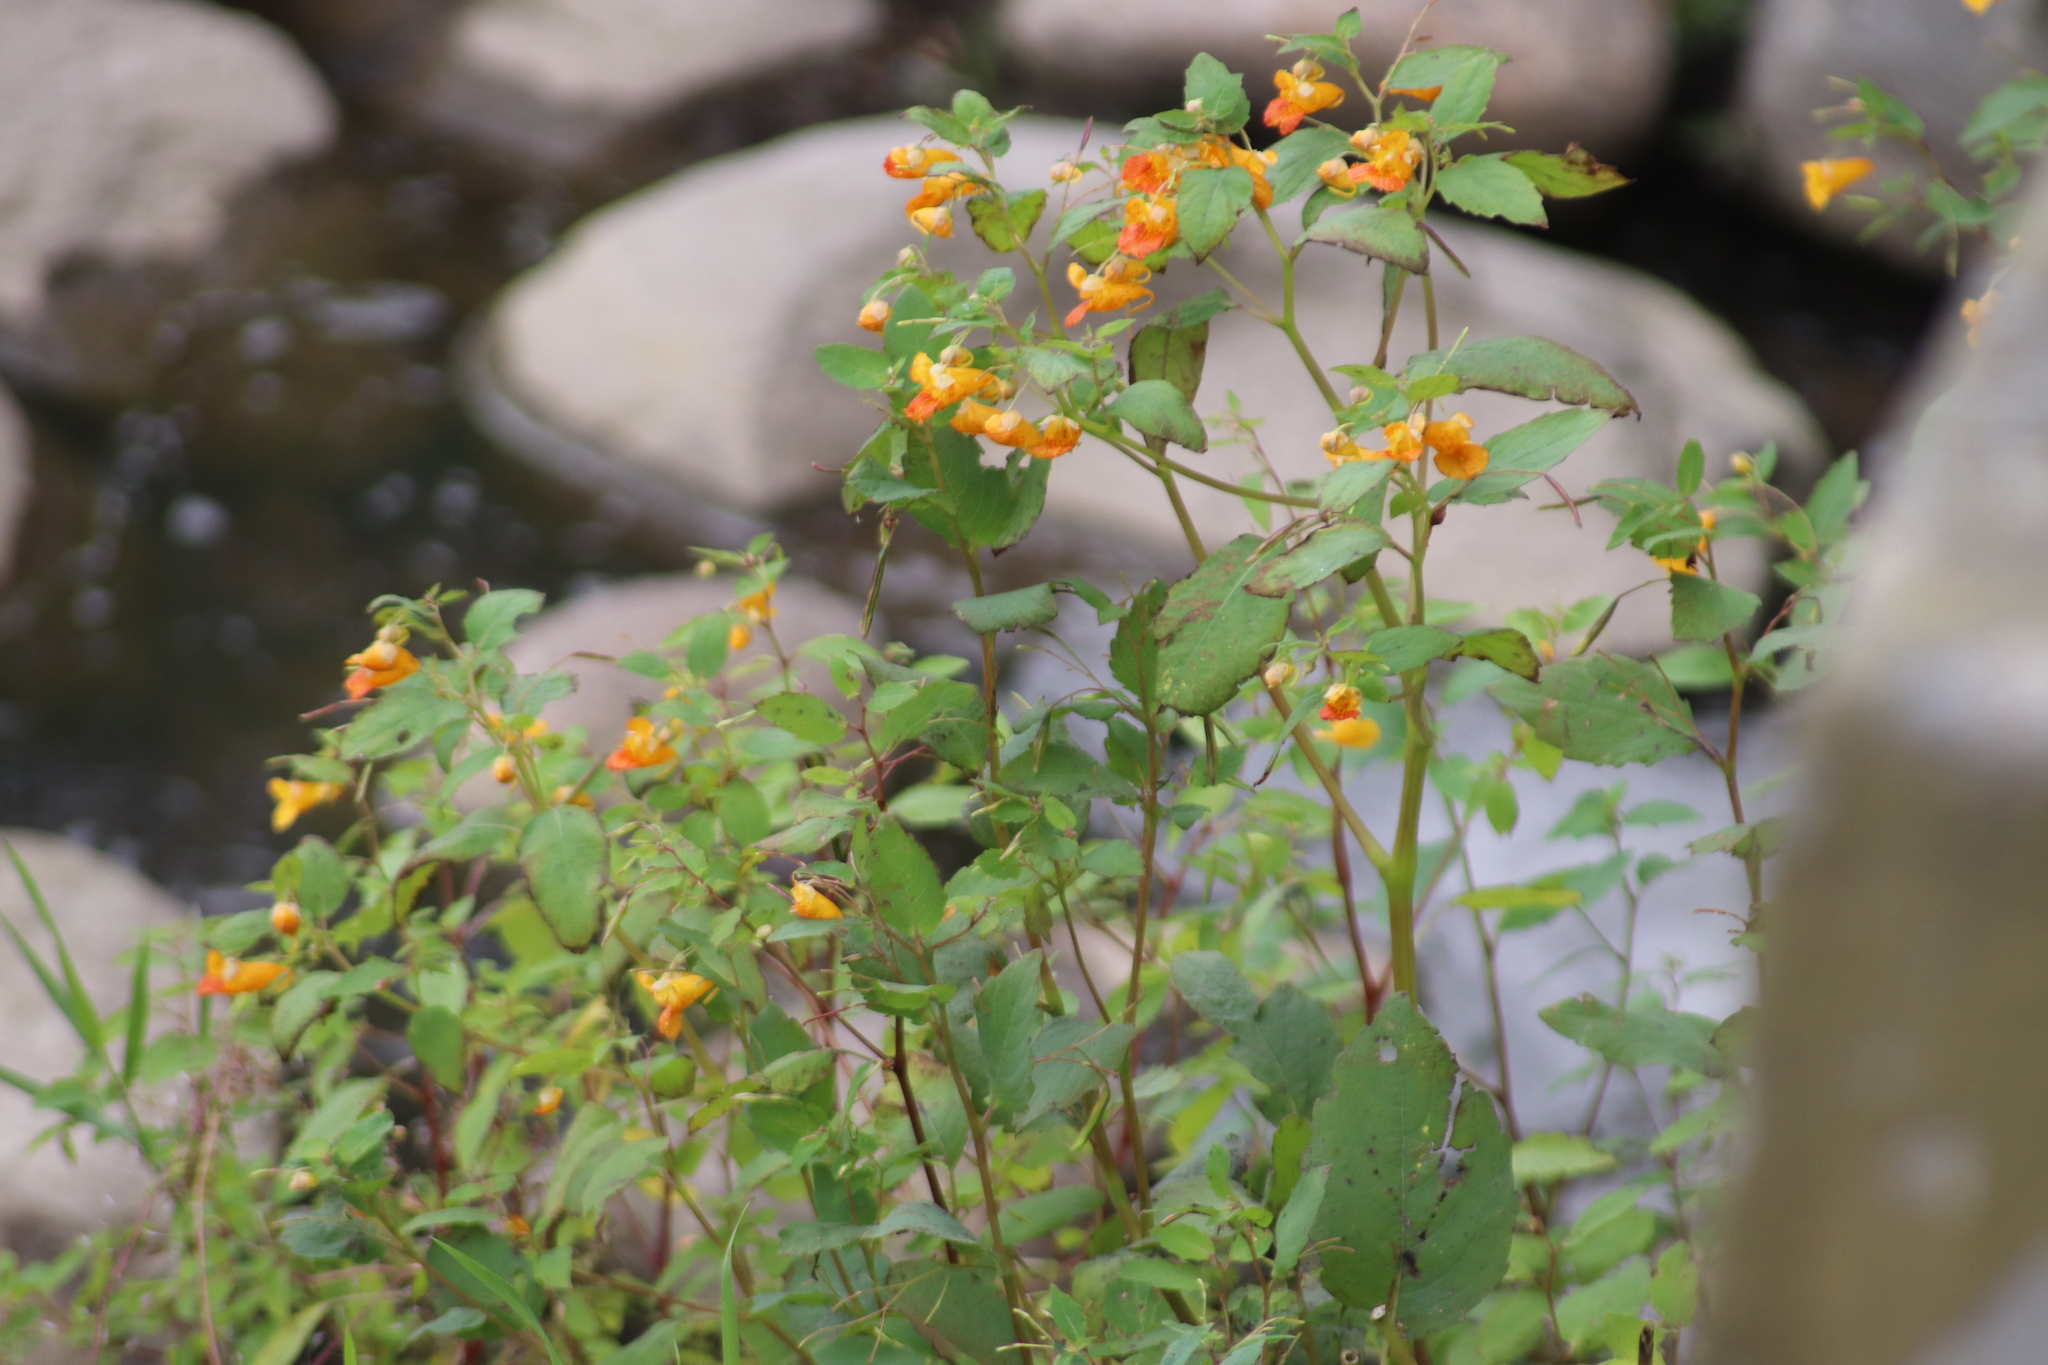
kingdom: Plantae
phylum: Tracheophyta
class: Magnoliopsida
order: Ericales
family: Balsaminaceae
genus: Impatiens
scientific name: Impatiens capensis
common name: Orange balsam
